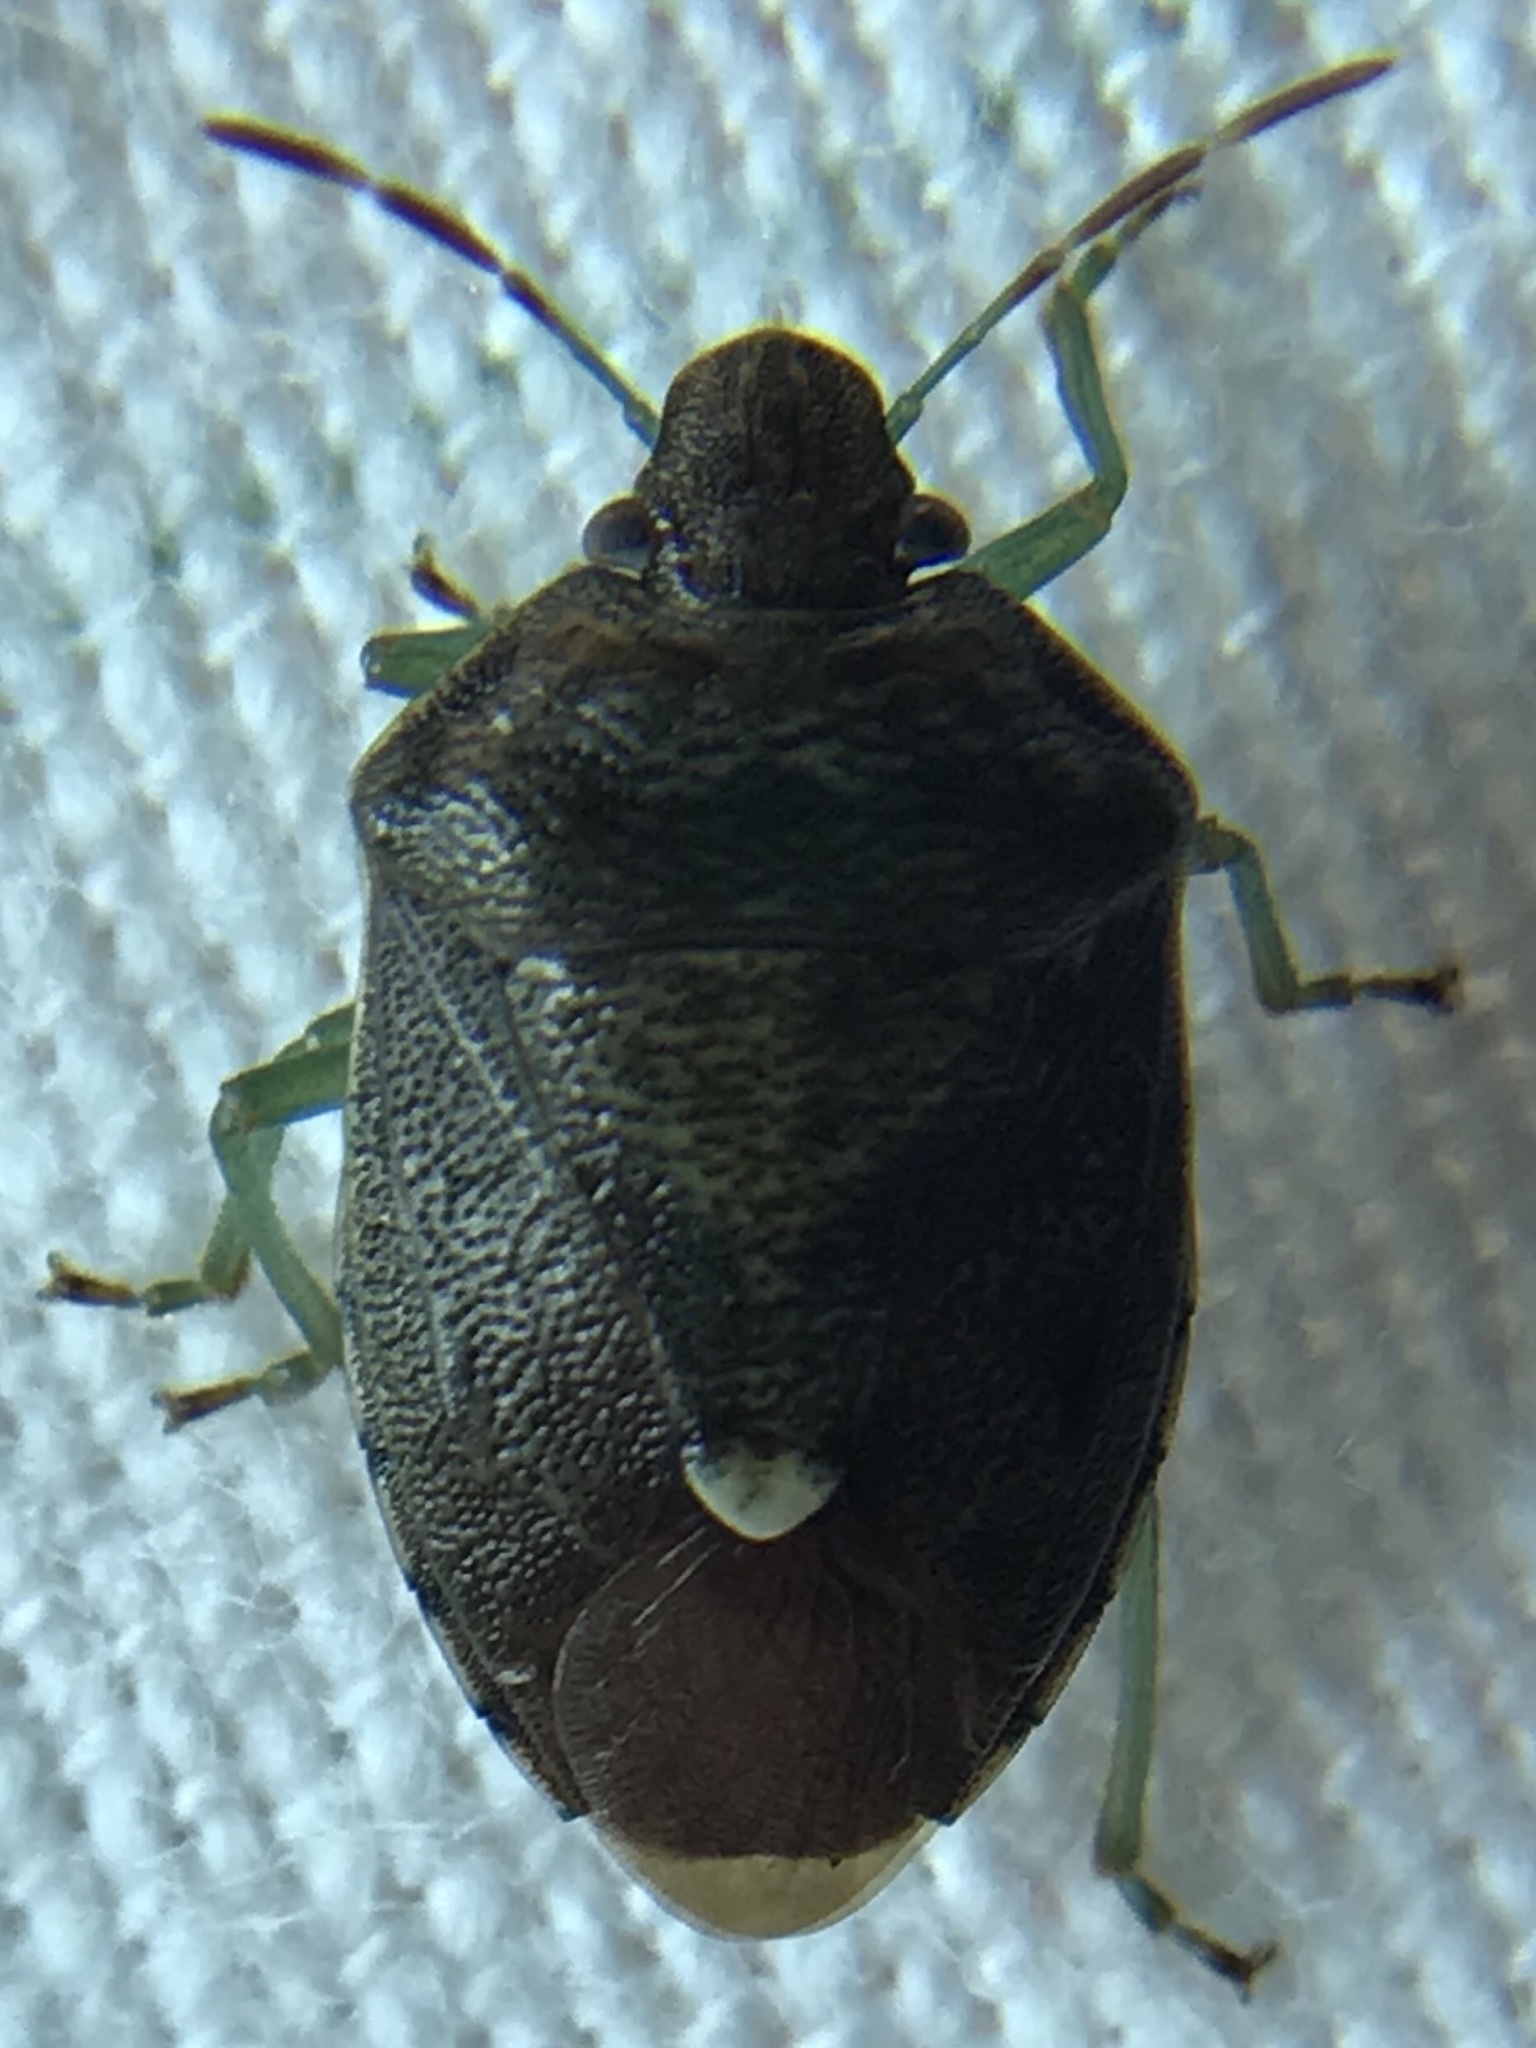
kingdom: Animalia
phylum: Arthropoda
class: Insecta
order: Hemiptera
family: Pentatomidae
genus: Banasa
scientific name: Banasa sordida
